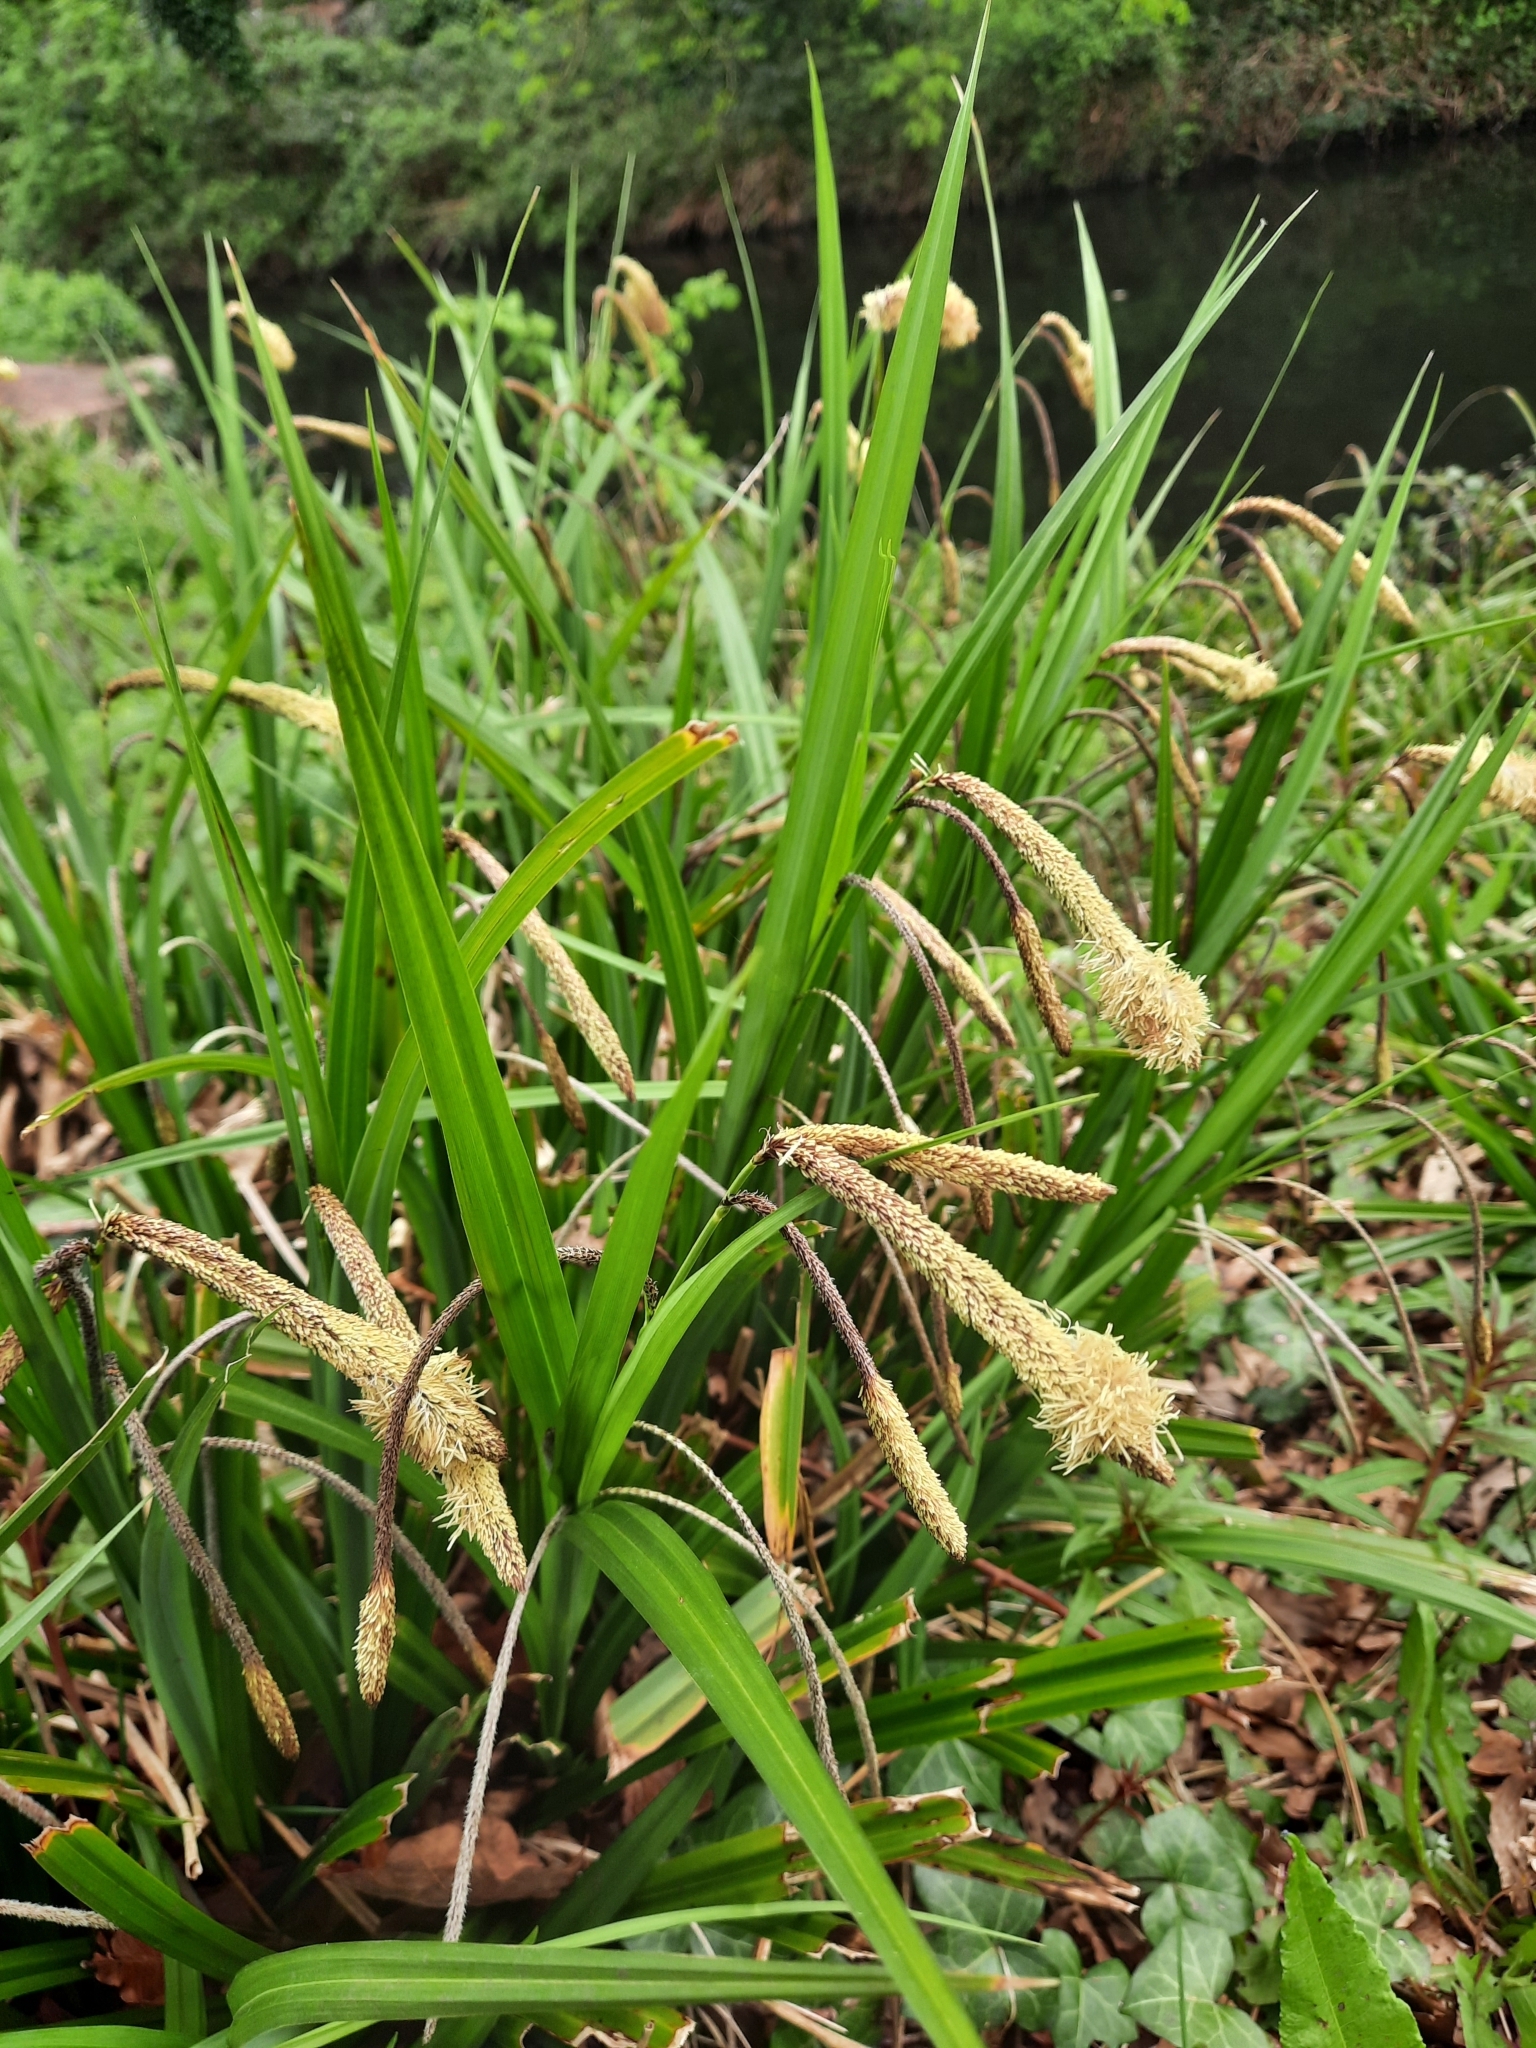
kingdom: Plantae
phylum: Tracheophyta
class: Liliopsida
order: Poales
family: Cyperaceae
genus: Carex
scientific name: Carex pendula
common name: Pendulous sedge
